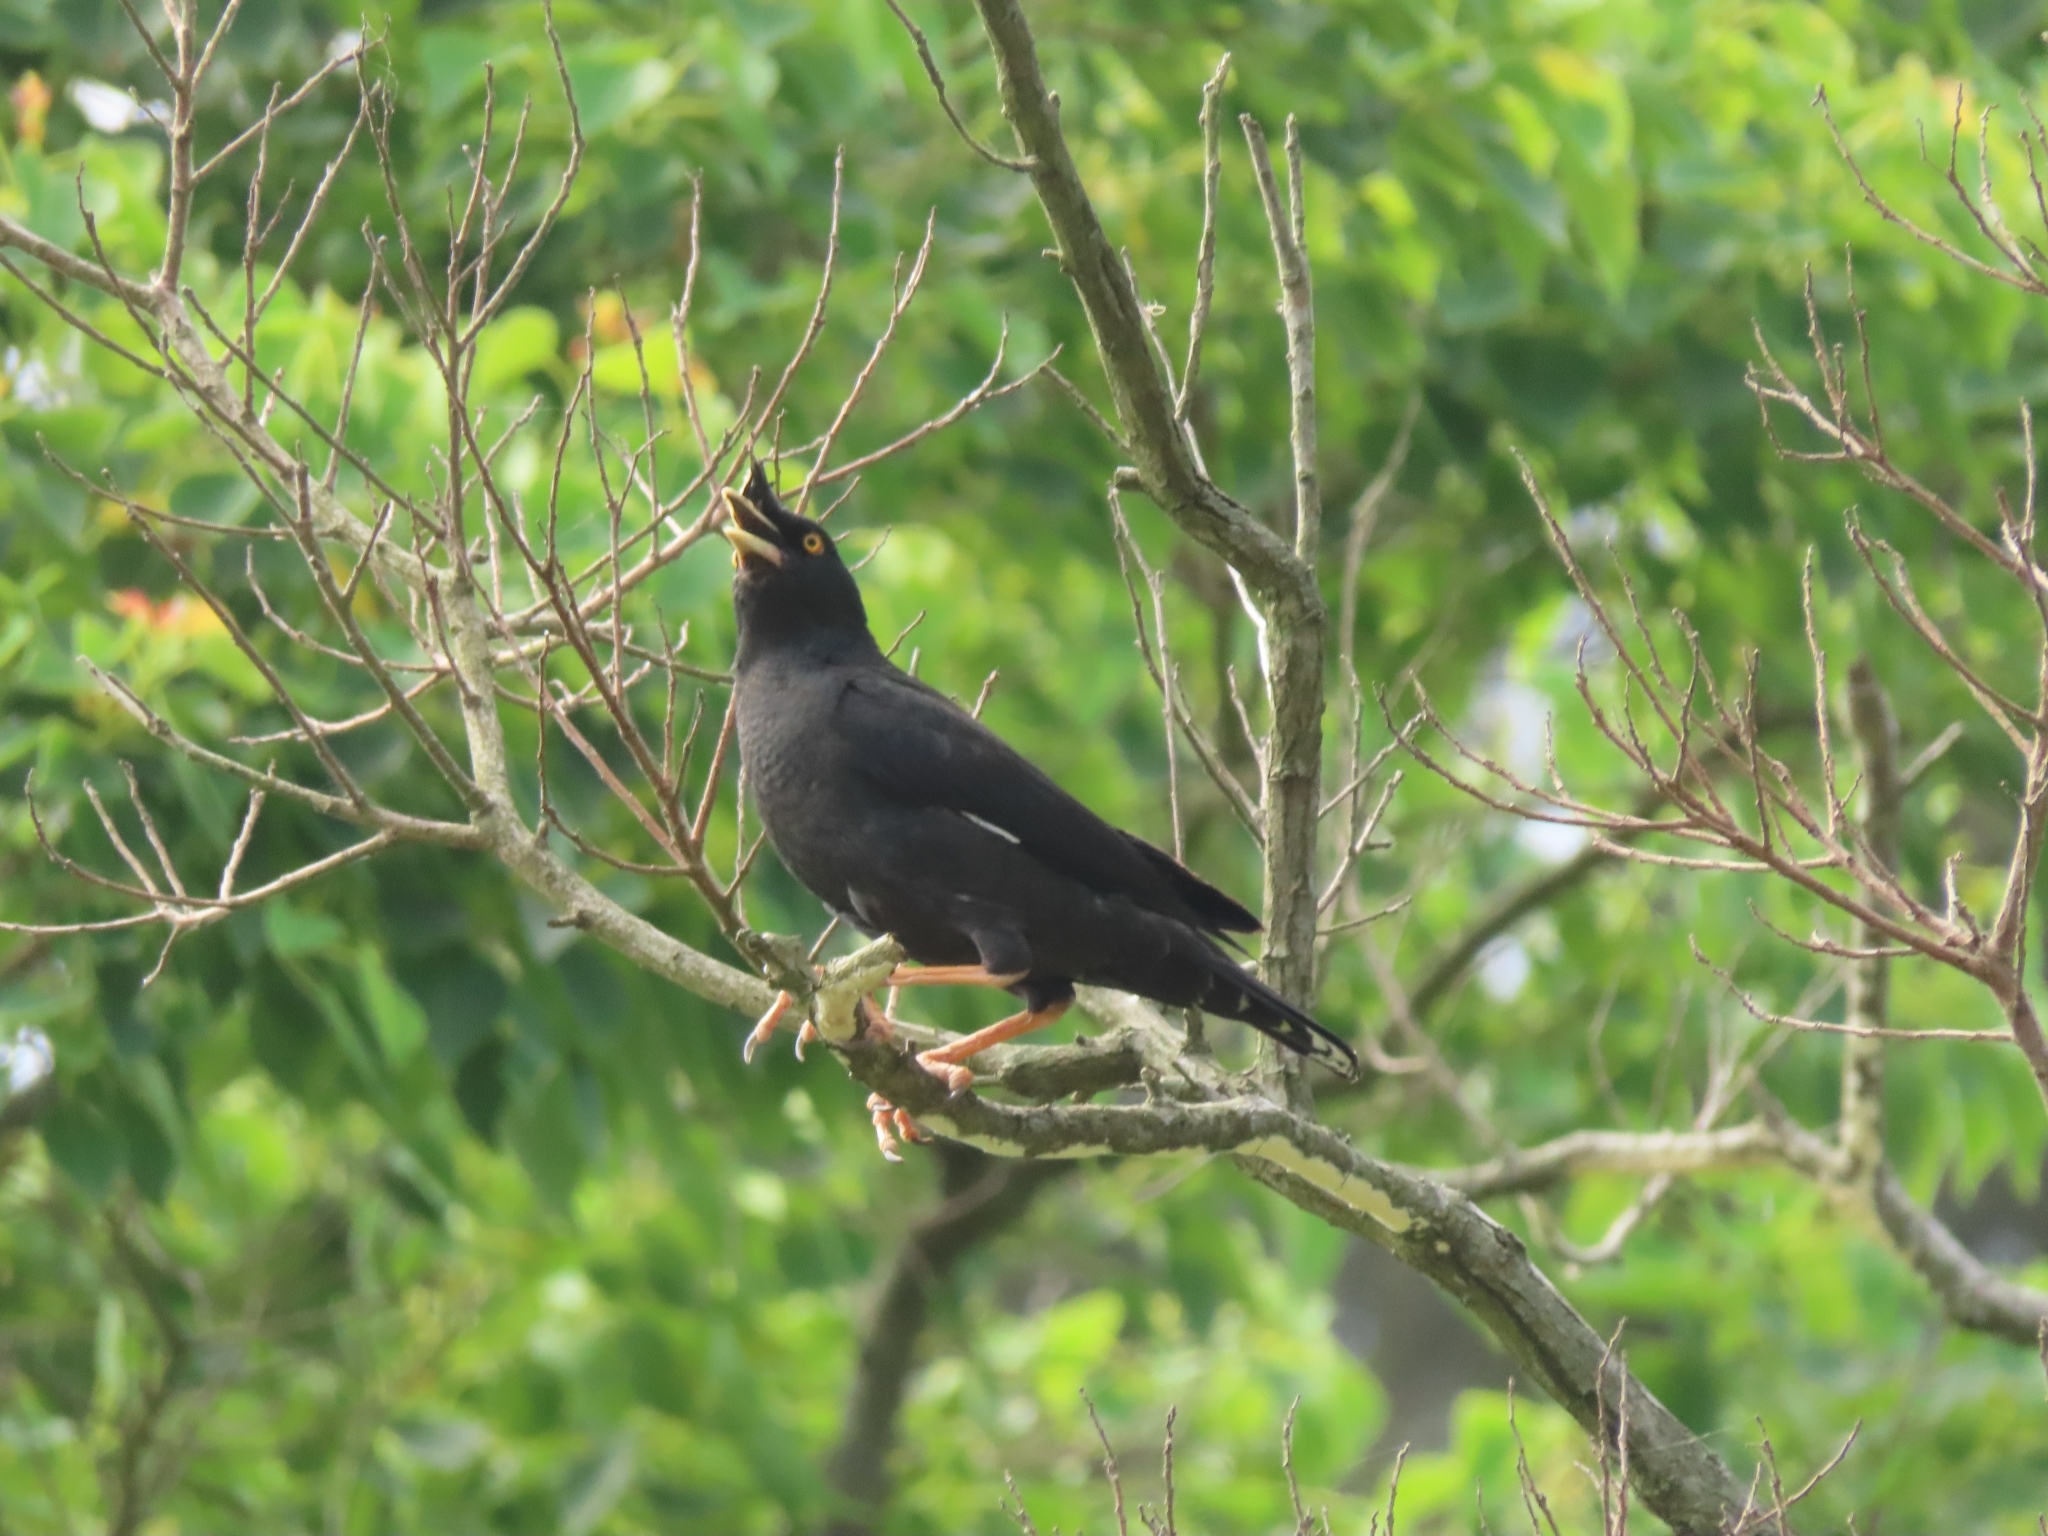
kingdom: Animalia
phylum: Chordata
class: Aves
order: Passeriformes
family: Sturnidae
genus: Acridotheres
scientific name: Acridotheres cristatellus
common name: Crested myna
